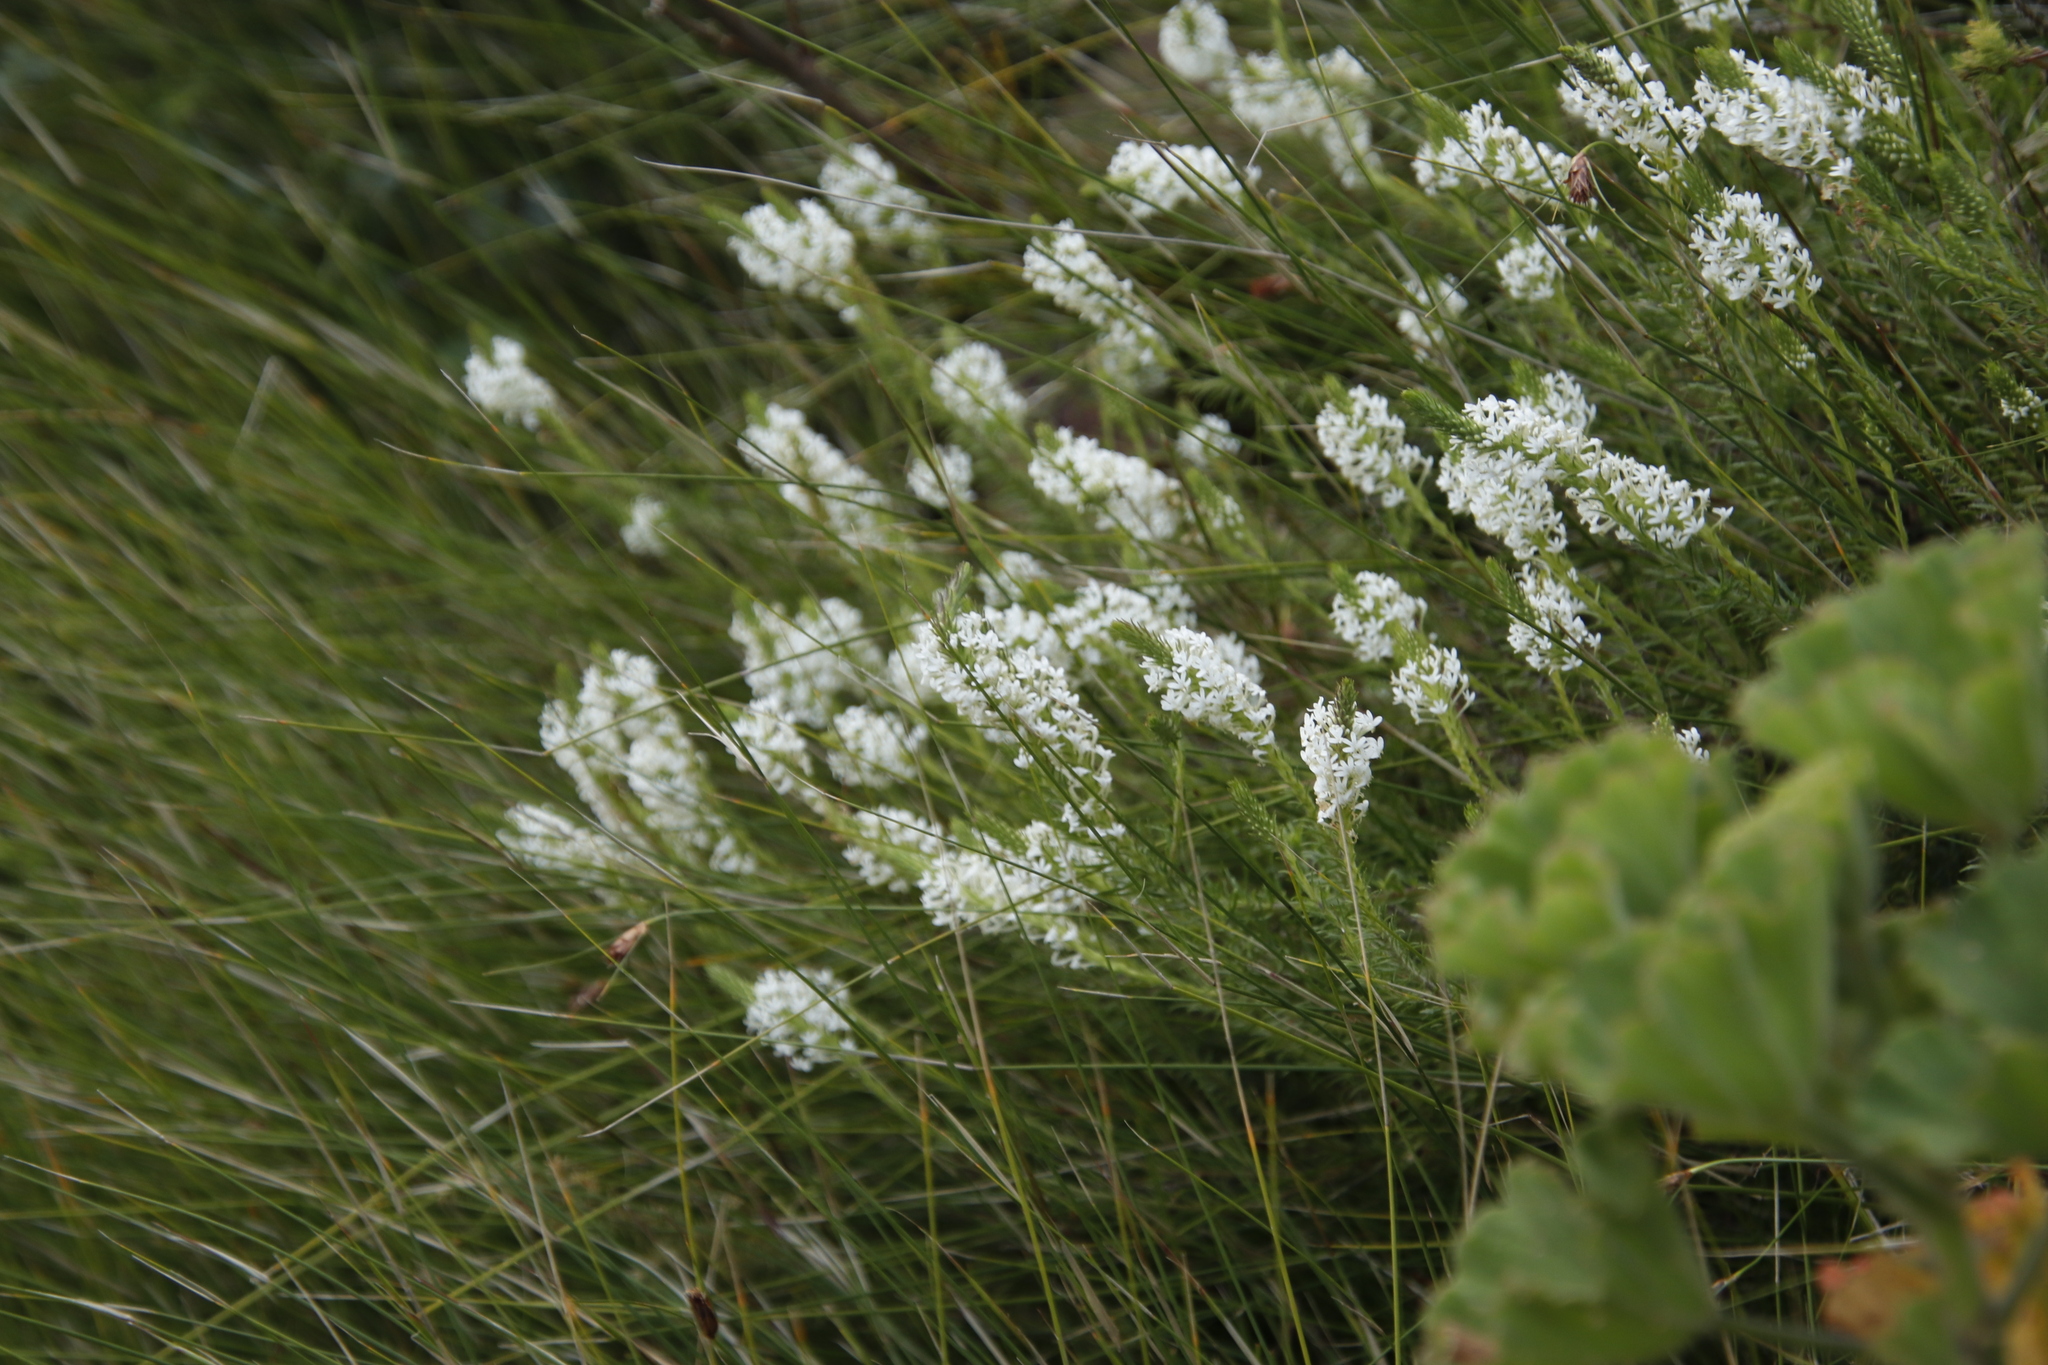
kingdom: Plantae
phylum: Tracheophyta
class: Magnoliopsida
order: Lamiales
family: Scrophulariaceae
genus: Dischisma
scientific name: Dischisma ciliatum
